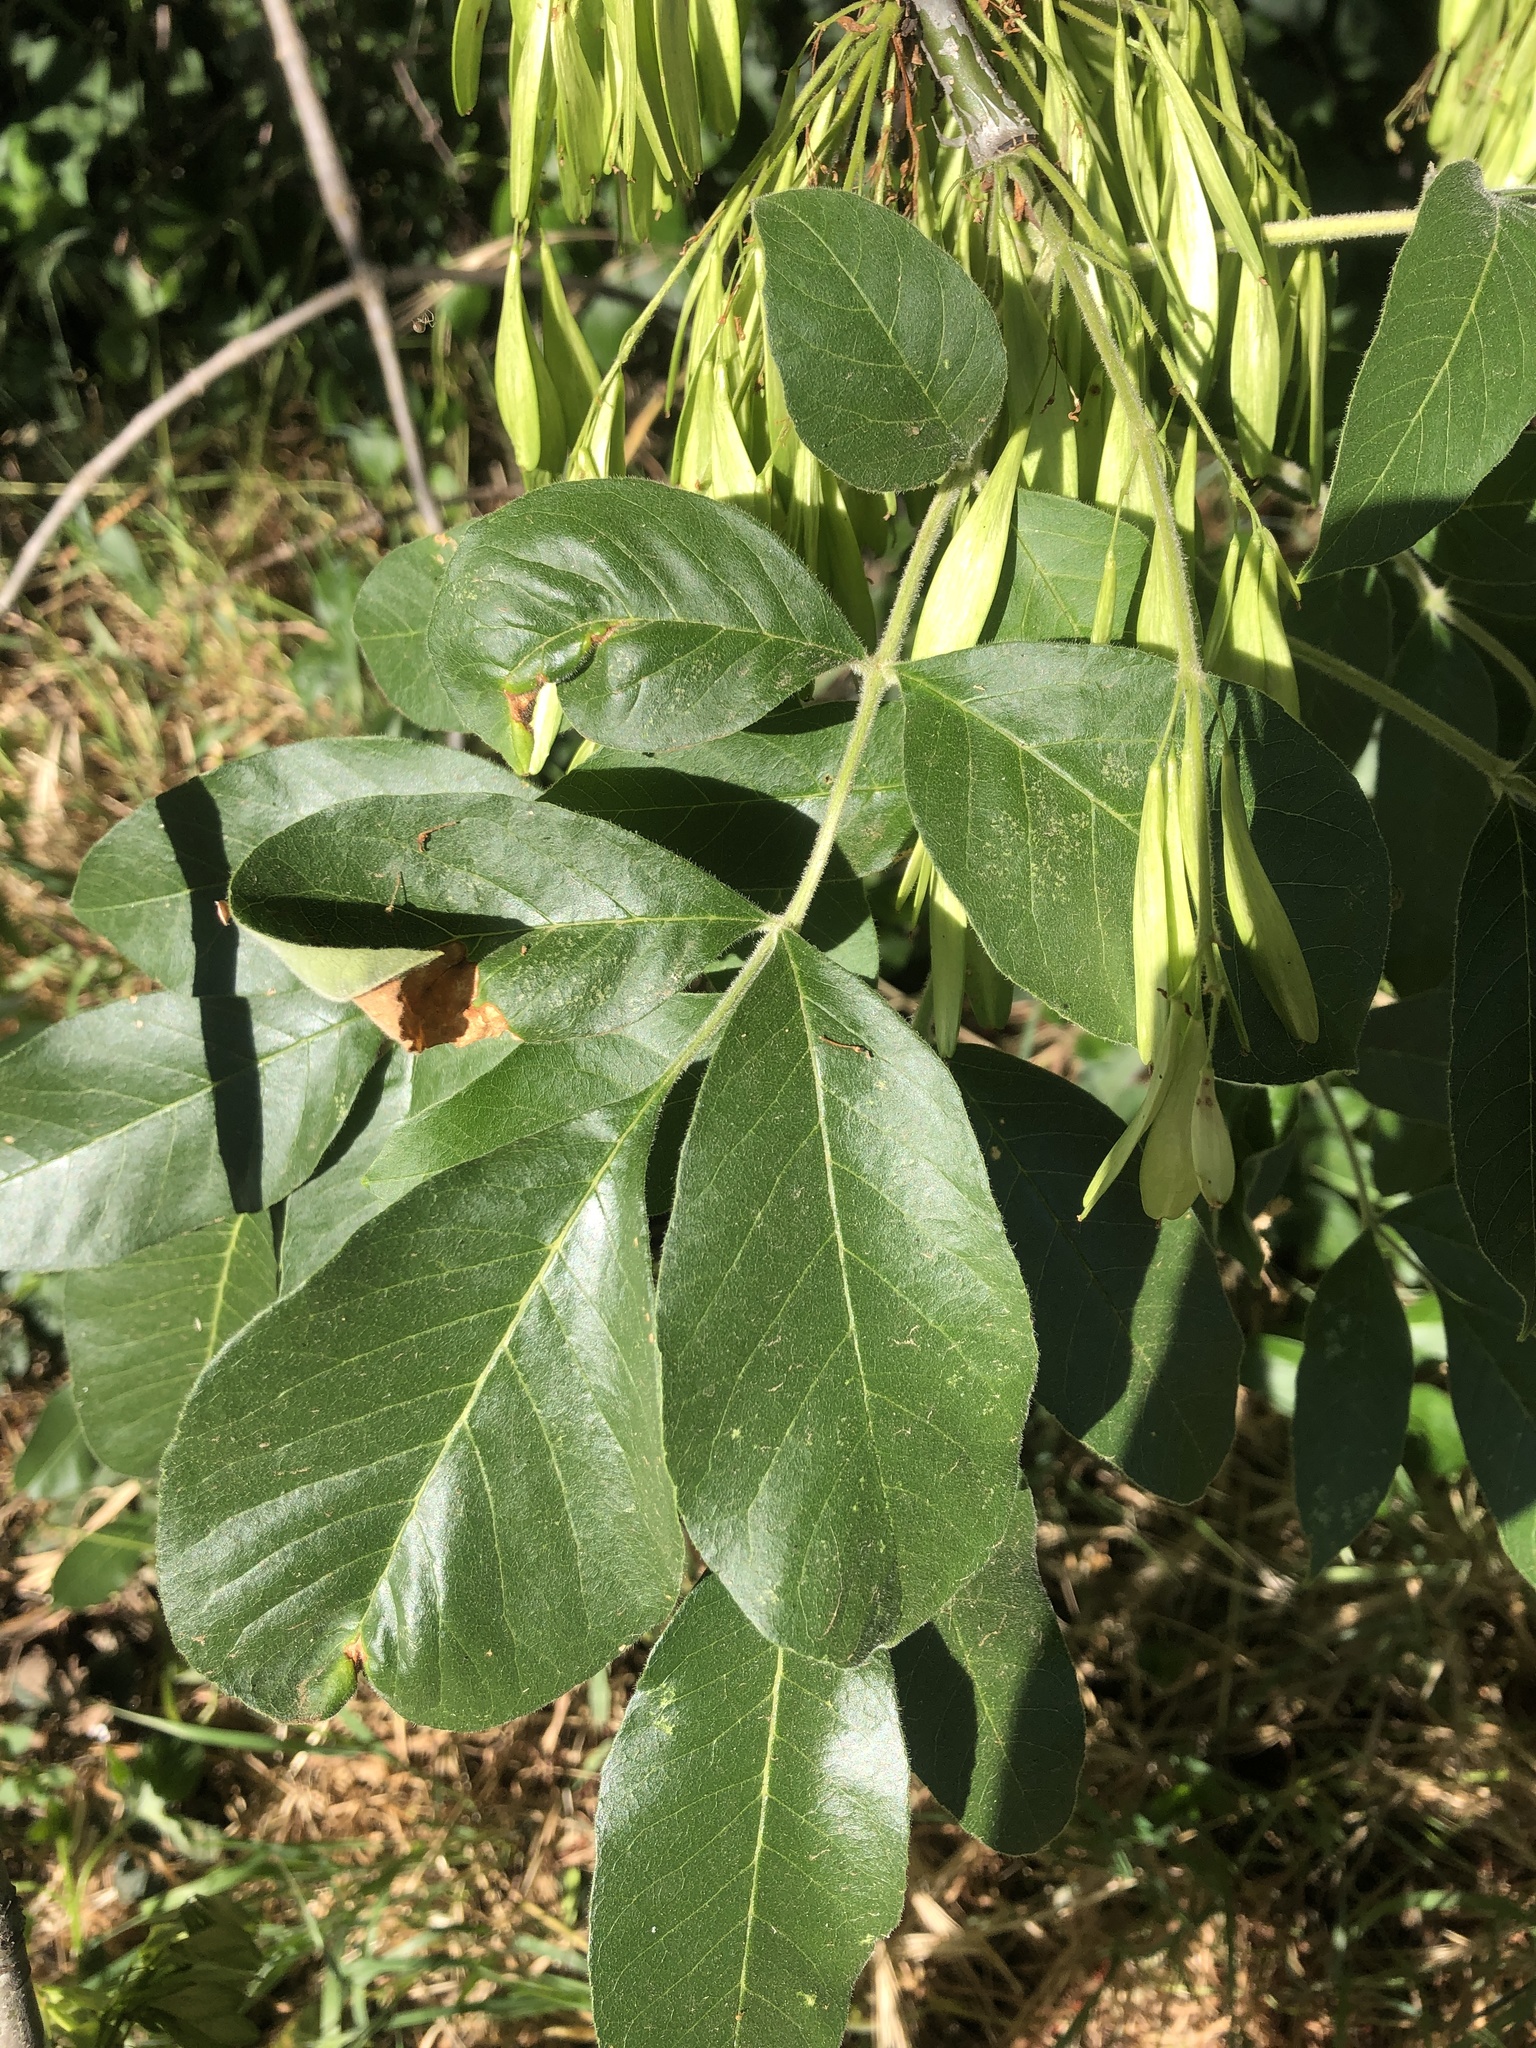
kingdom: Plantae
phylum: Tracheophyta
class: Magnoliopsida
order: Lamiales
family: Oleaceae
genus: Fraxinus
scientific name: Fraxinus latifolia
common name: Oregon ash
